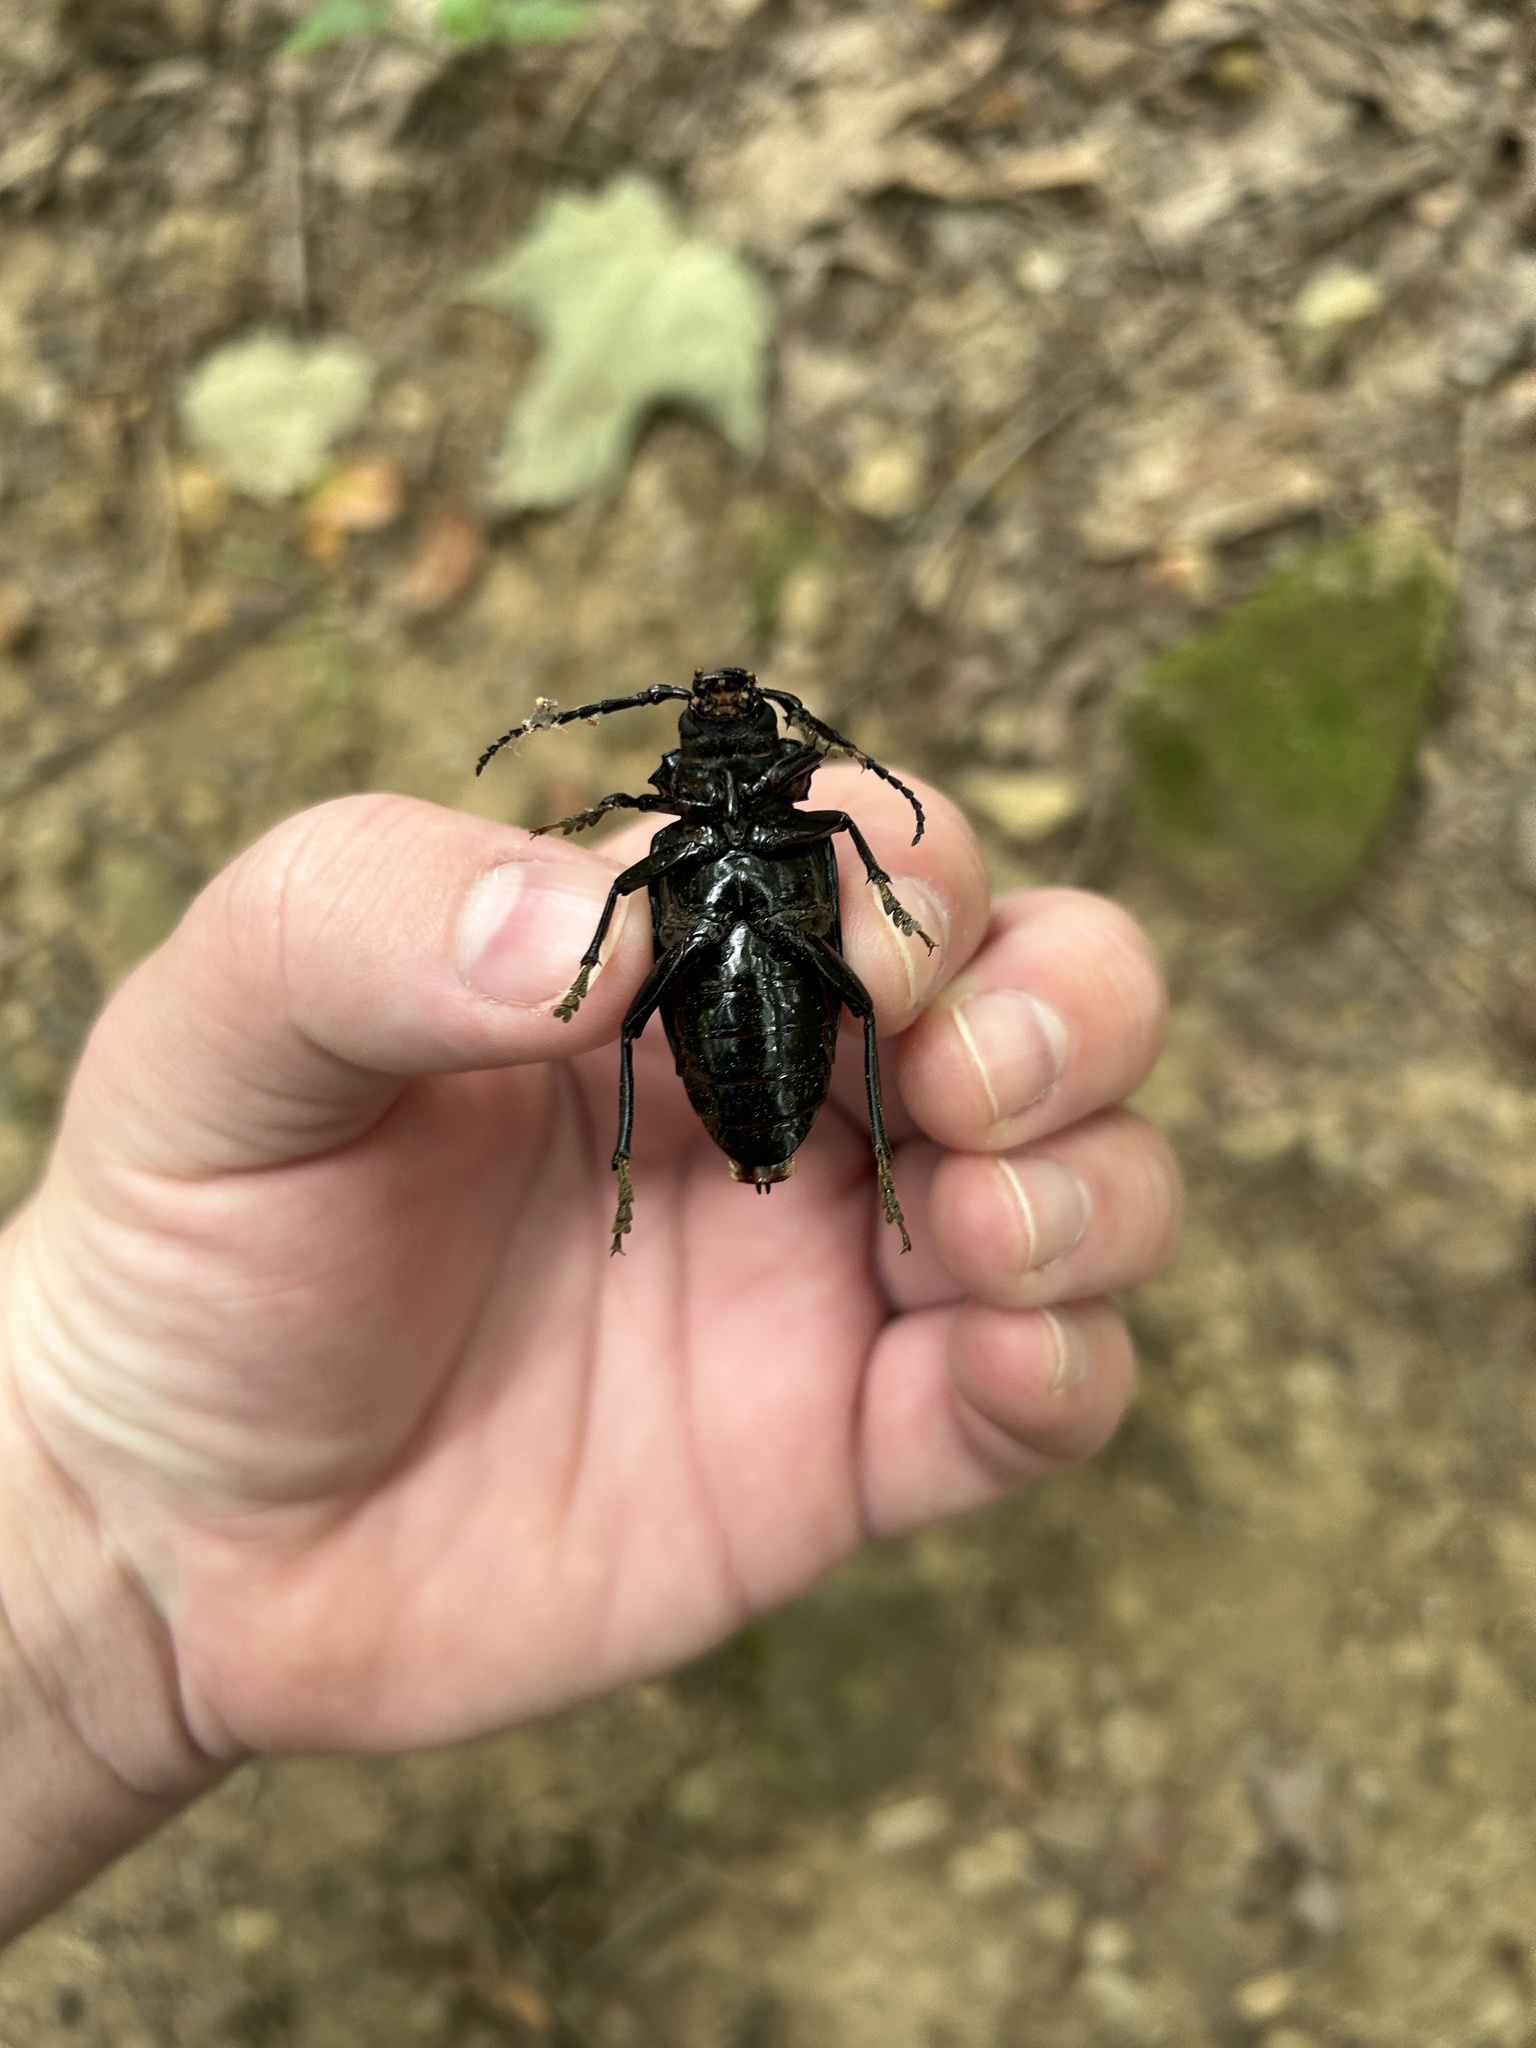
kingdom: Animalia
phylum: Arthropoda
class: Insecta
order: Coleoptera
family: Cerambycidae
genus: Prionus
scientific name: Prionus laticollis
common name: Broad necked prionus
